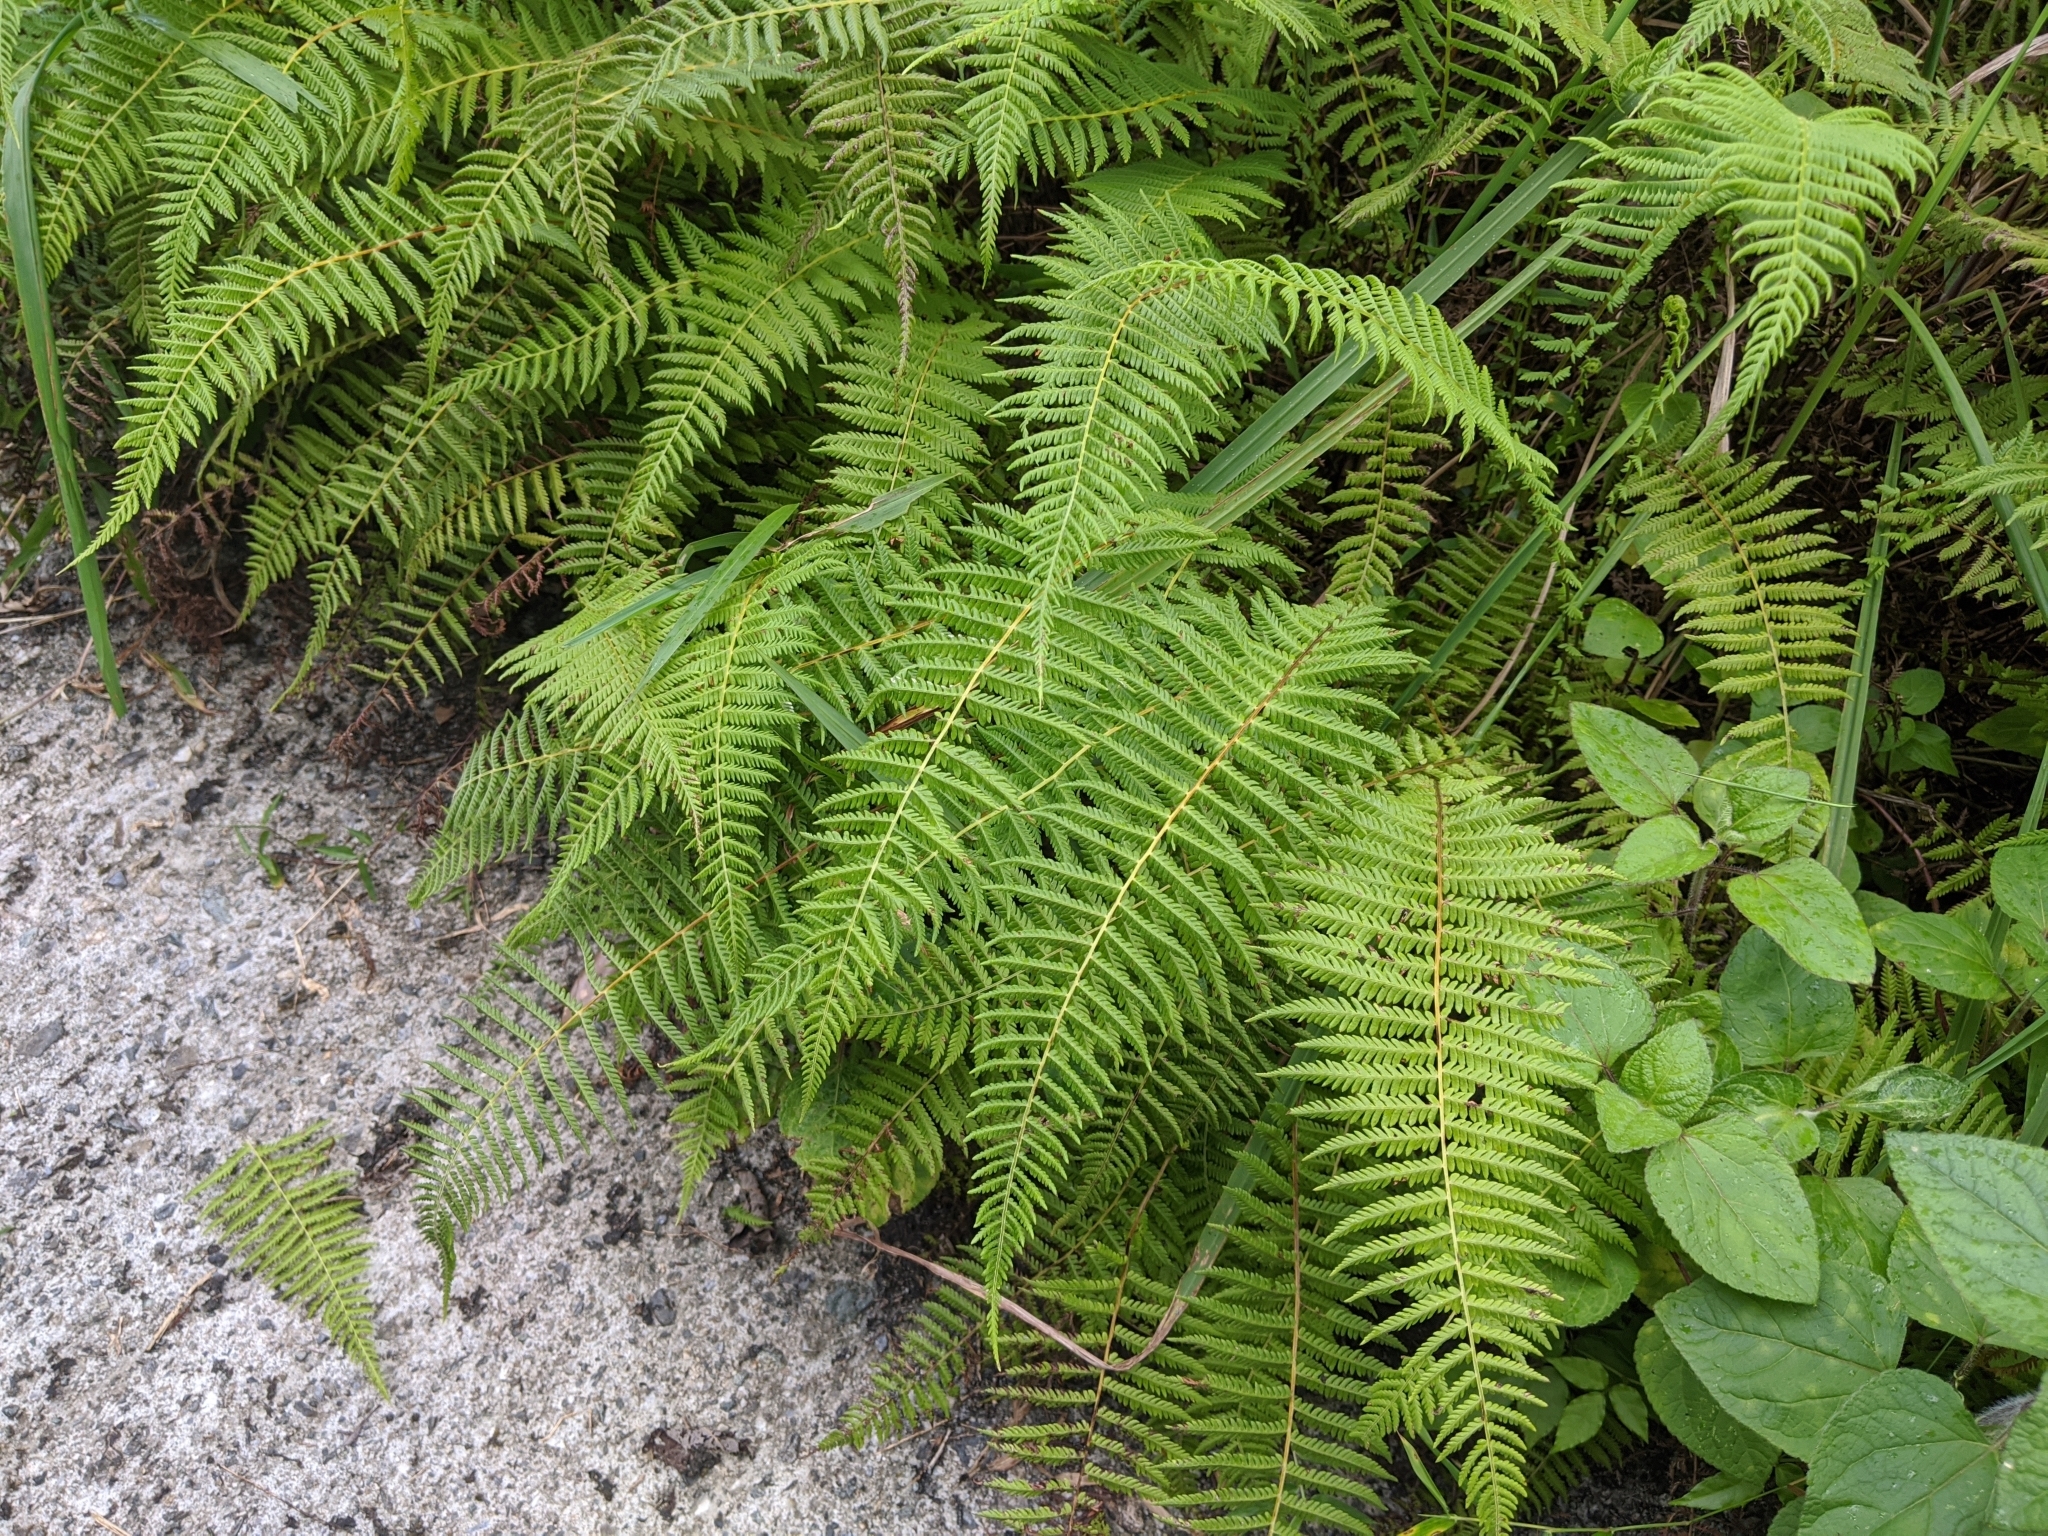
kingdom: Plantae
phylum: Tracheophyta
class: Polypodiopsida
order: Polypodiales
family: Thelypteridaceae
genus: Amauropelta
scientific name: Amauropelta beddomei
